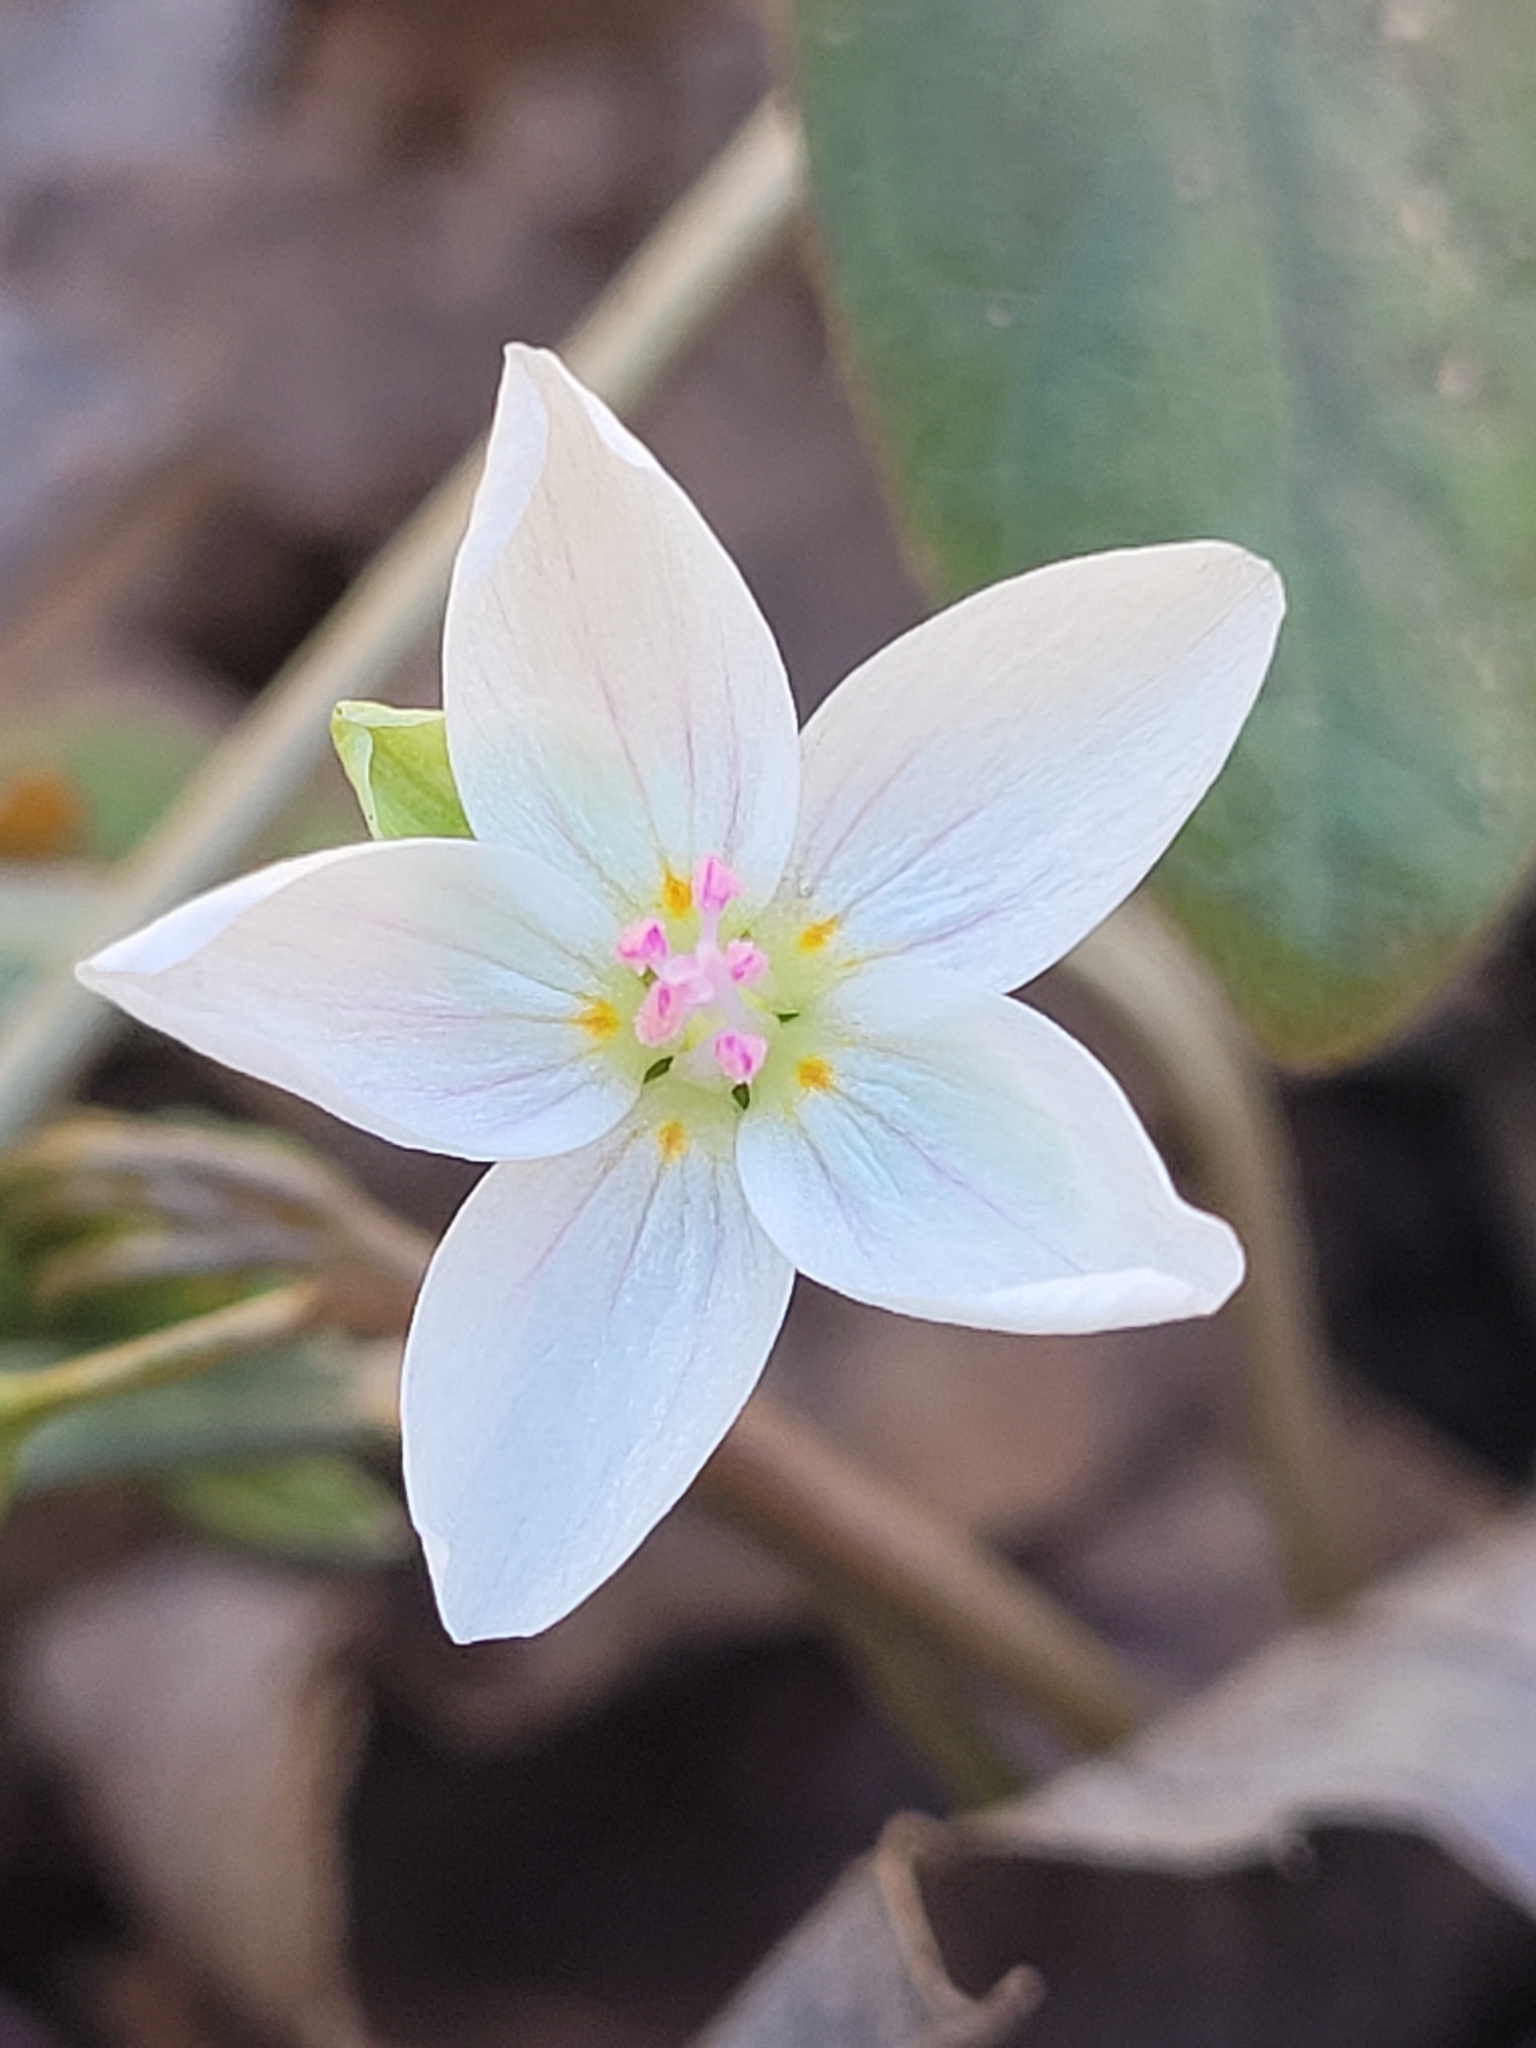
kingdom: Plantae
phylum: Tracheophyta
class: Magnoliopsida
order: Caryophyllales
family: Montiaceae
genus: Claytonia
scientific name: Claytonia virginica
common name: Virginia springbeauty
